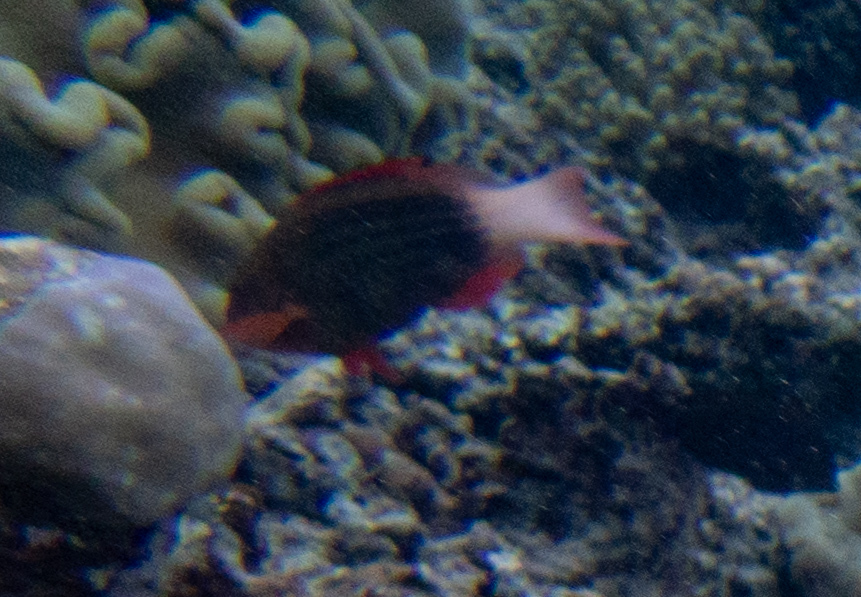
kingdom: Animalia
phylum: Chordata
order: Perciformes
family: Scaridae
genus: Scarus
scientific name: Scarus frenatus
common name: Bridled parrotfish
